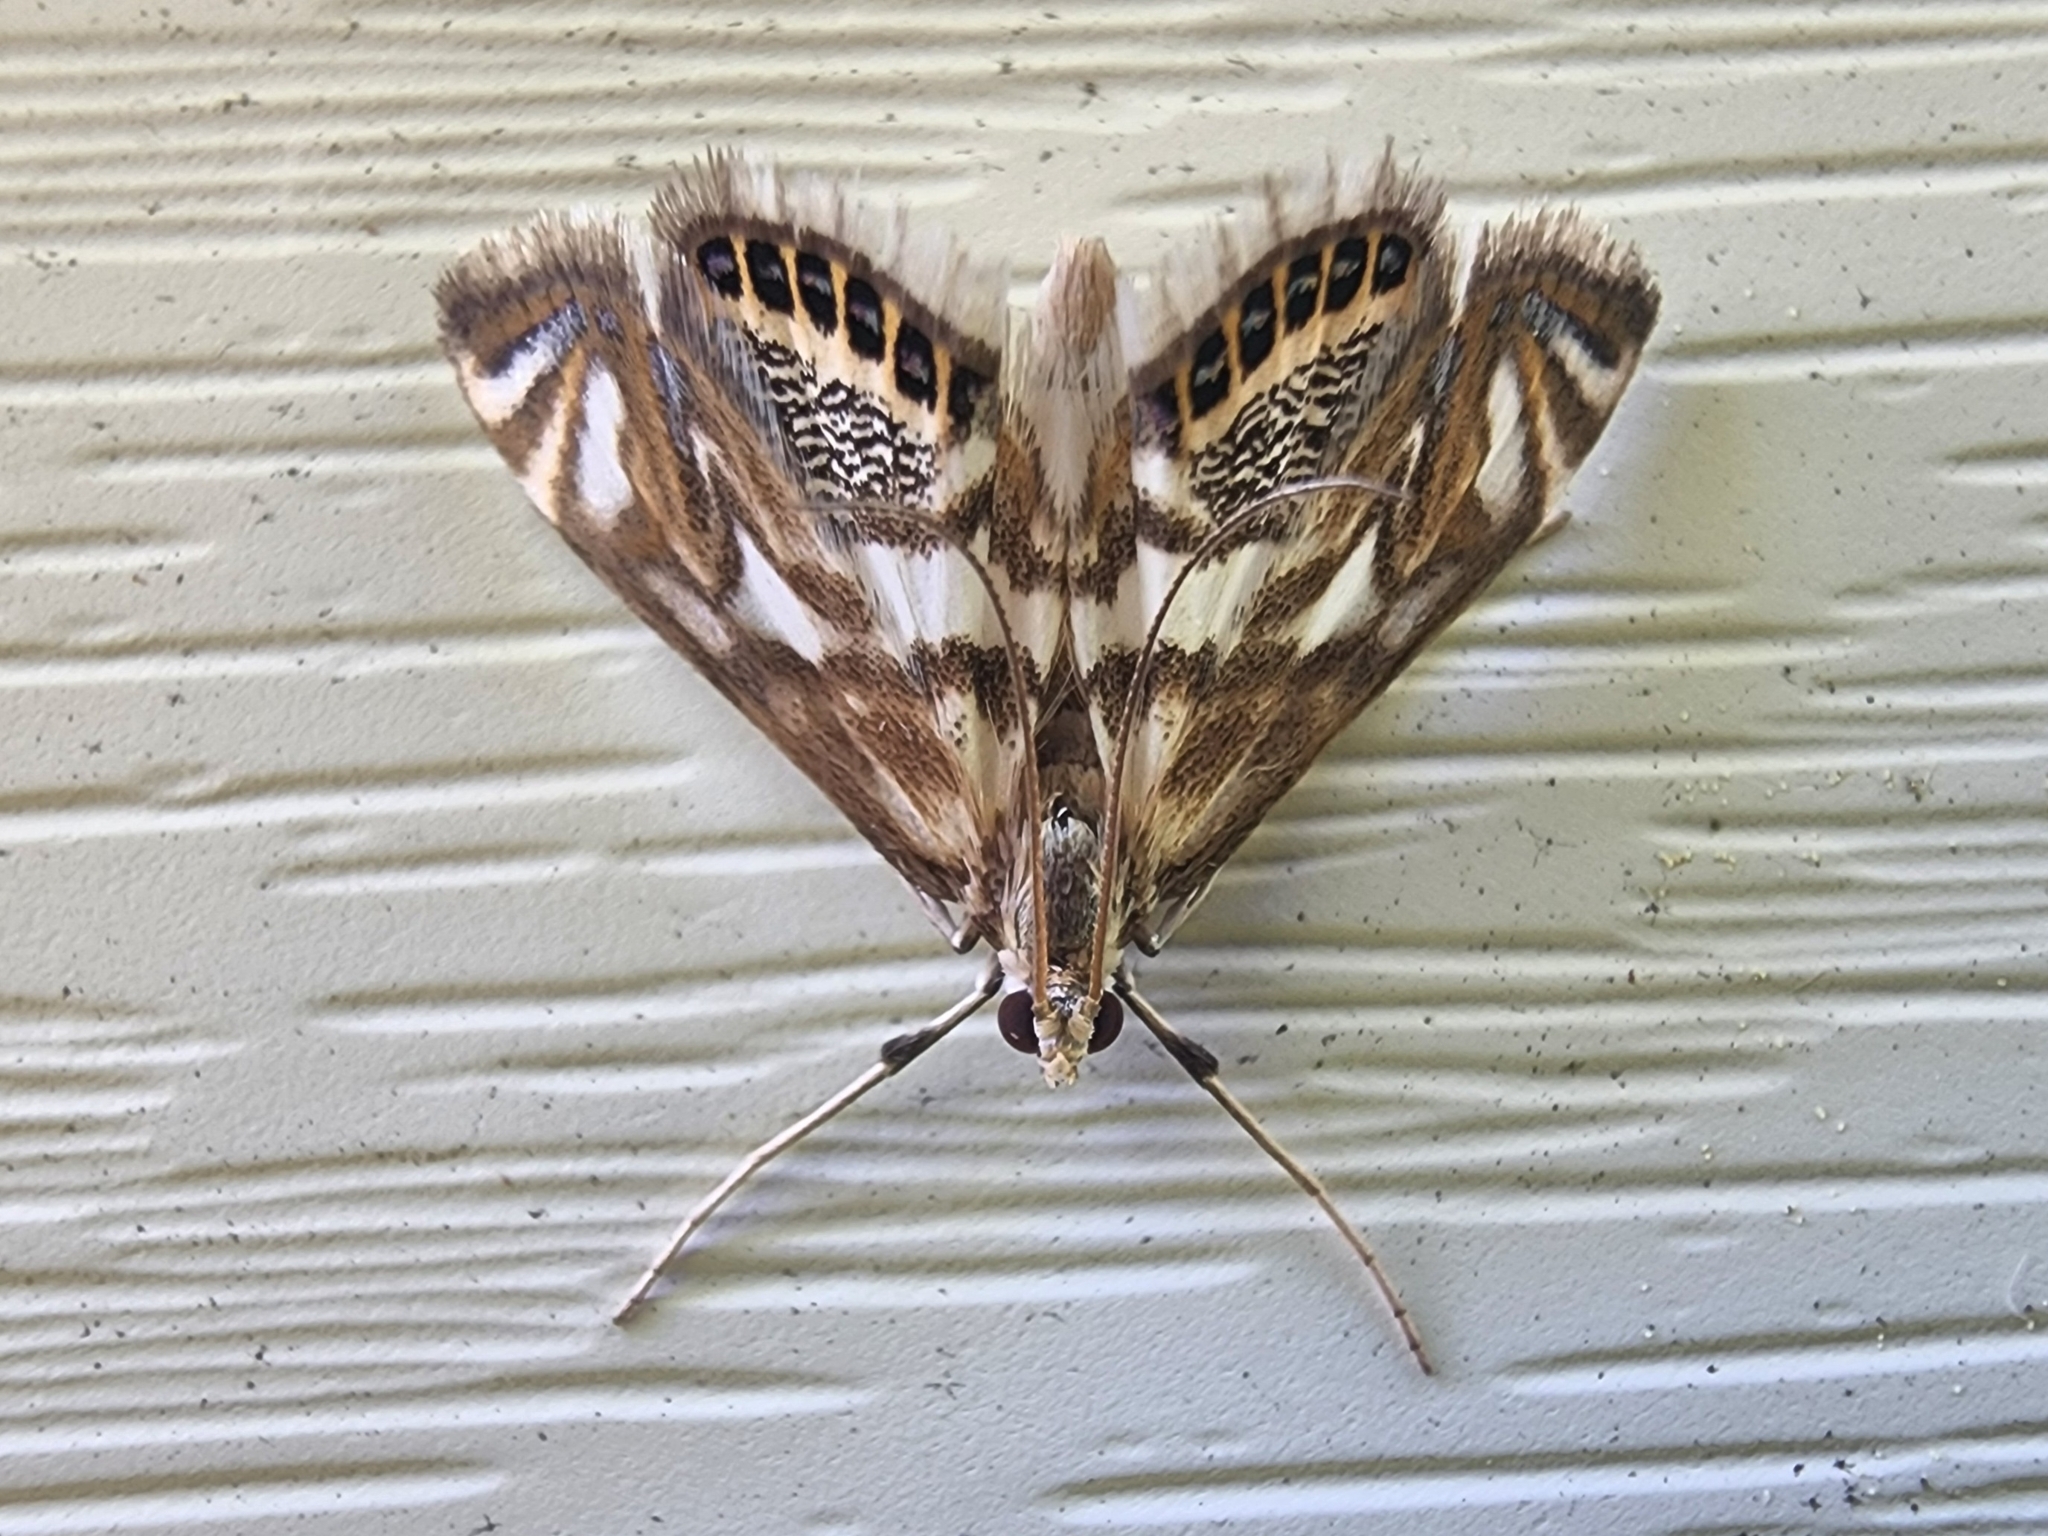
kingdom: Animalia
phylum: Arthropoda
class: Insecta
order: Lepidoptera
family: Crambidae
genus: Neocataclysta
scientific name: Neocataclysta magnificalis
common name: Scrollwork pyralid moth
